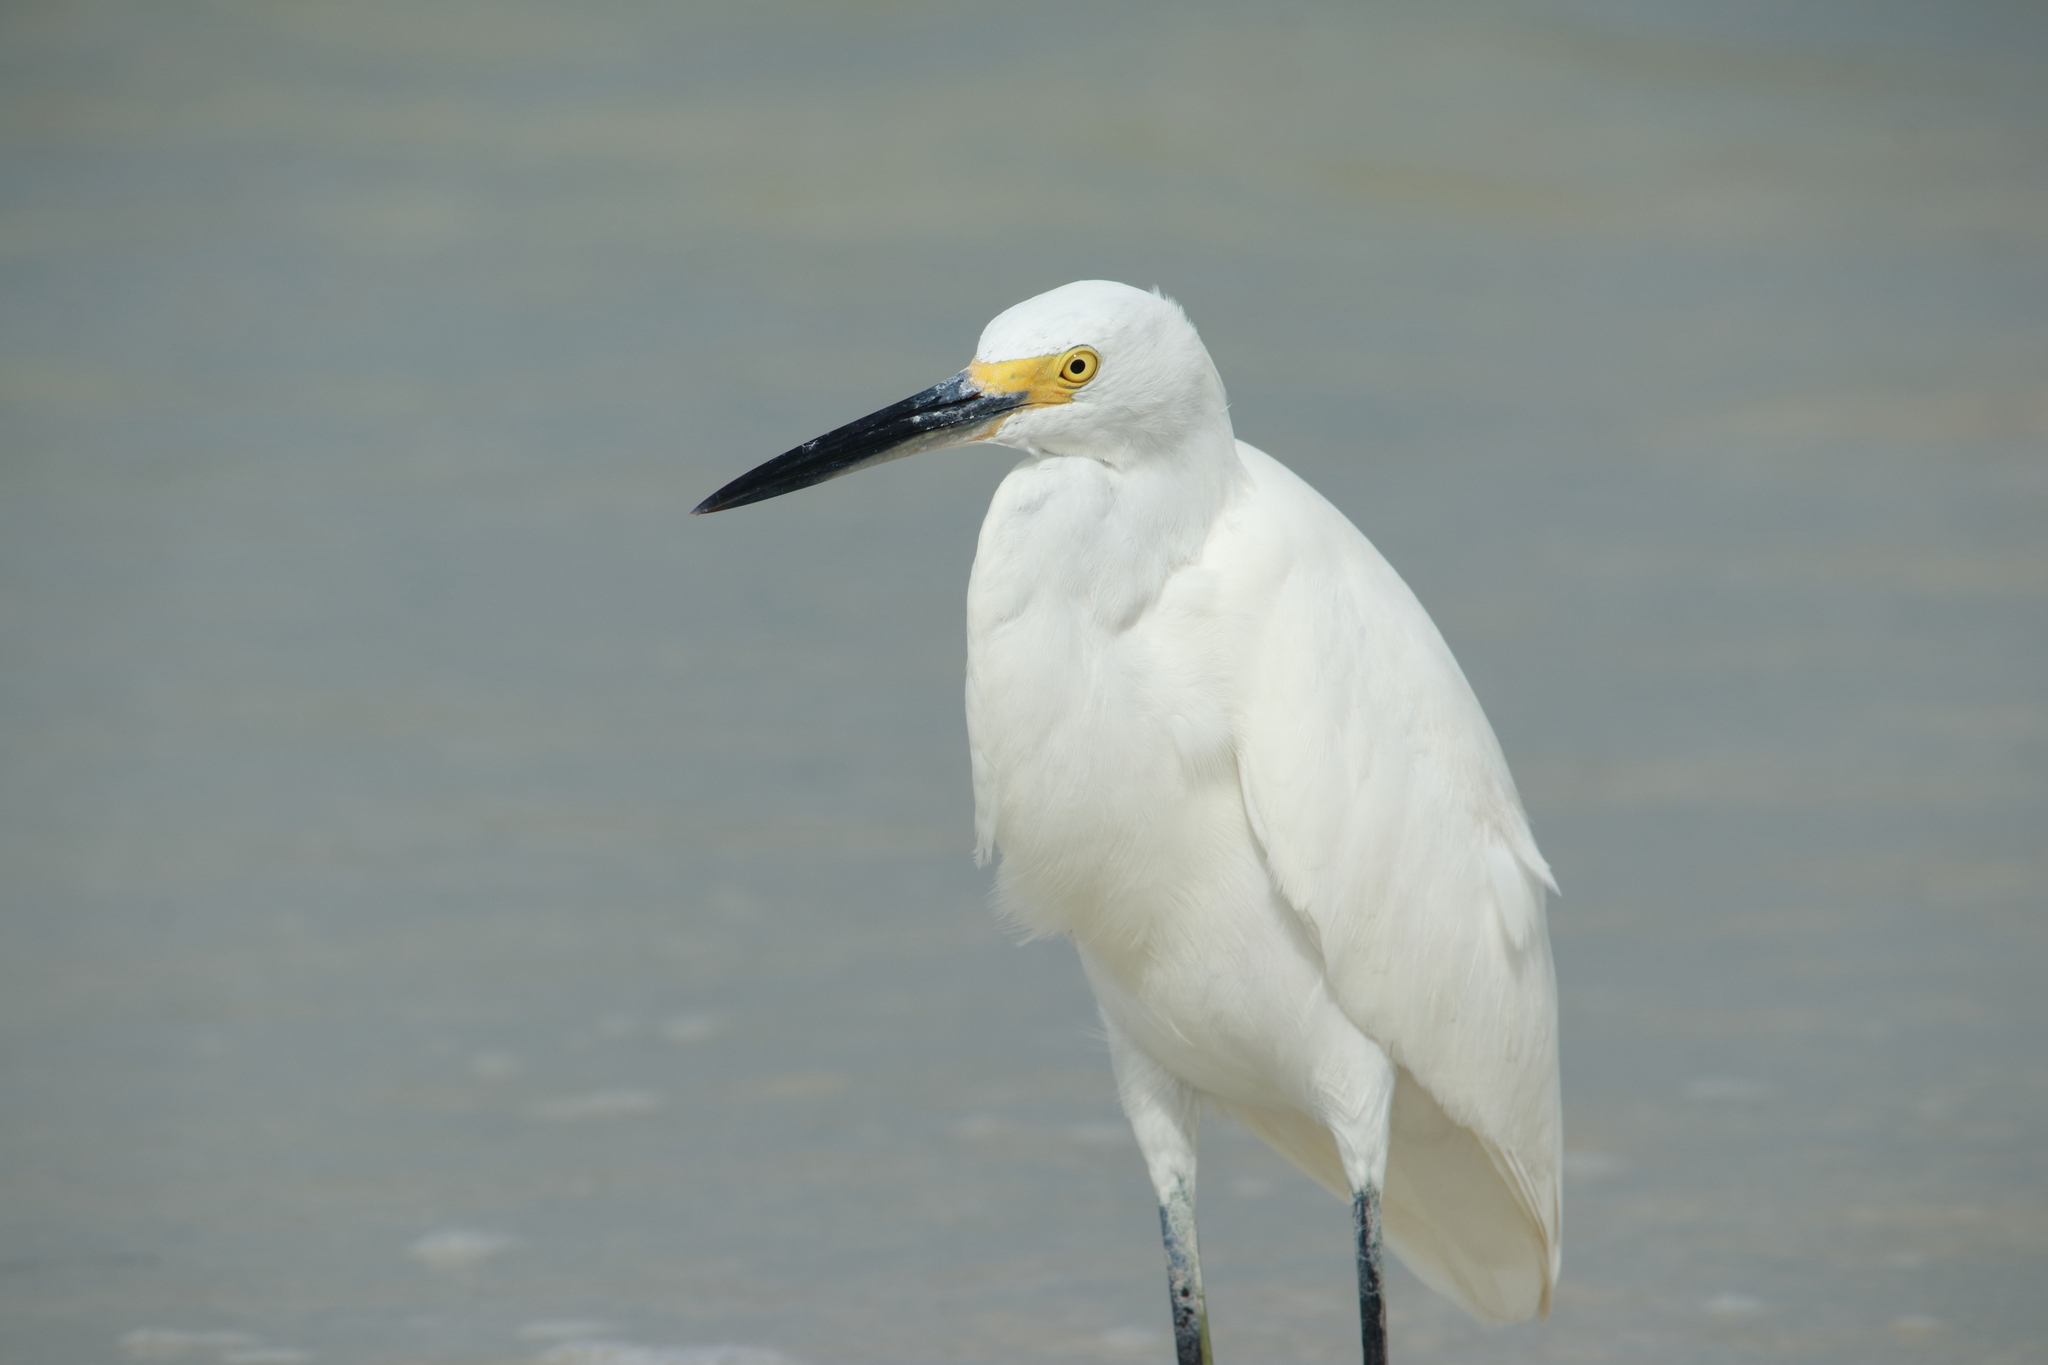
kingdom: Animalia
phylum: Chordata
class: Aves
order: Pelecaniformes
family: Ardeidae
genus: Egretta
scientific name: Egretta thula
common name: Snowy egret
